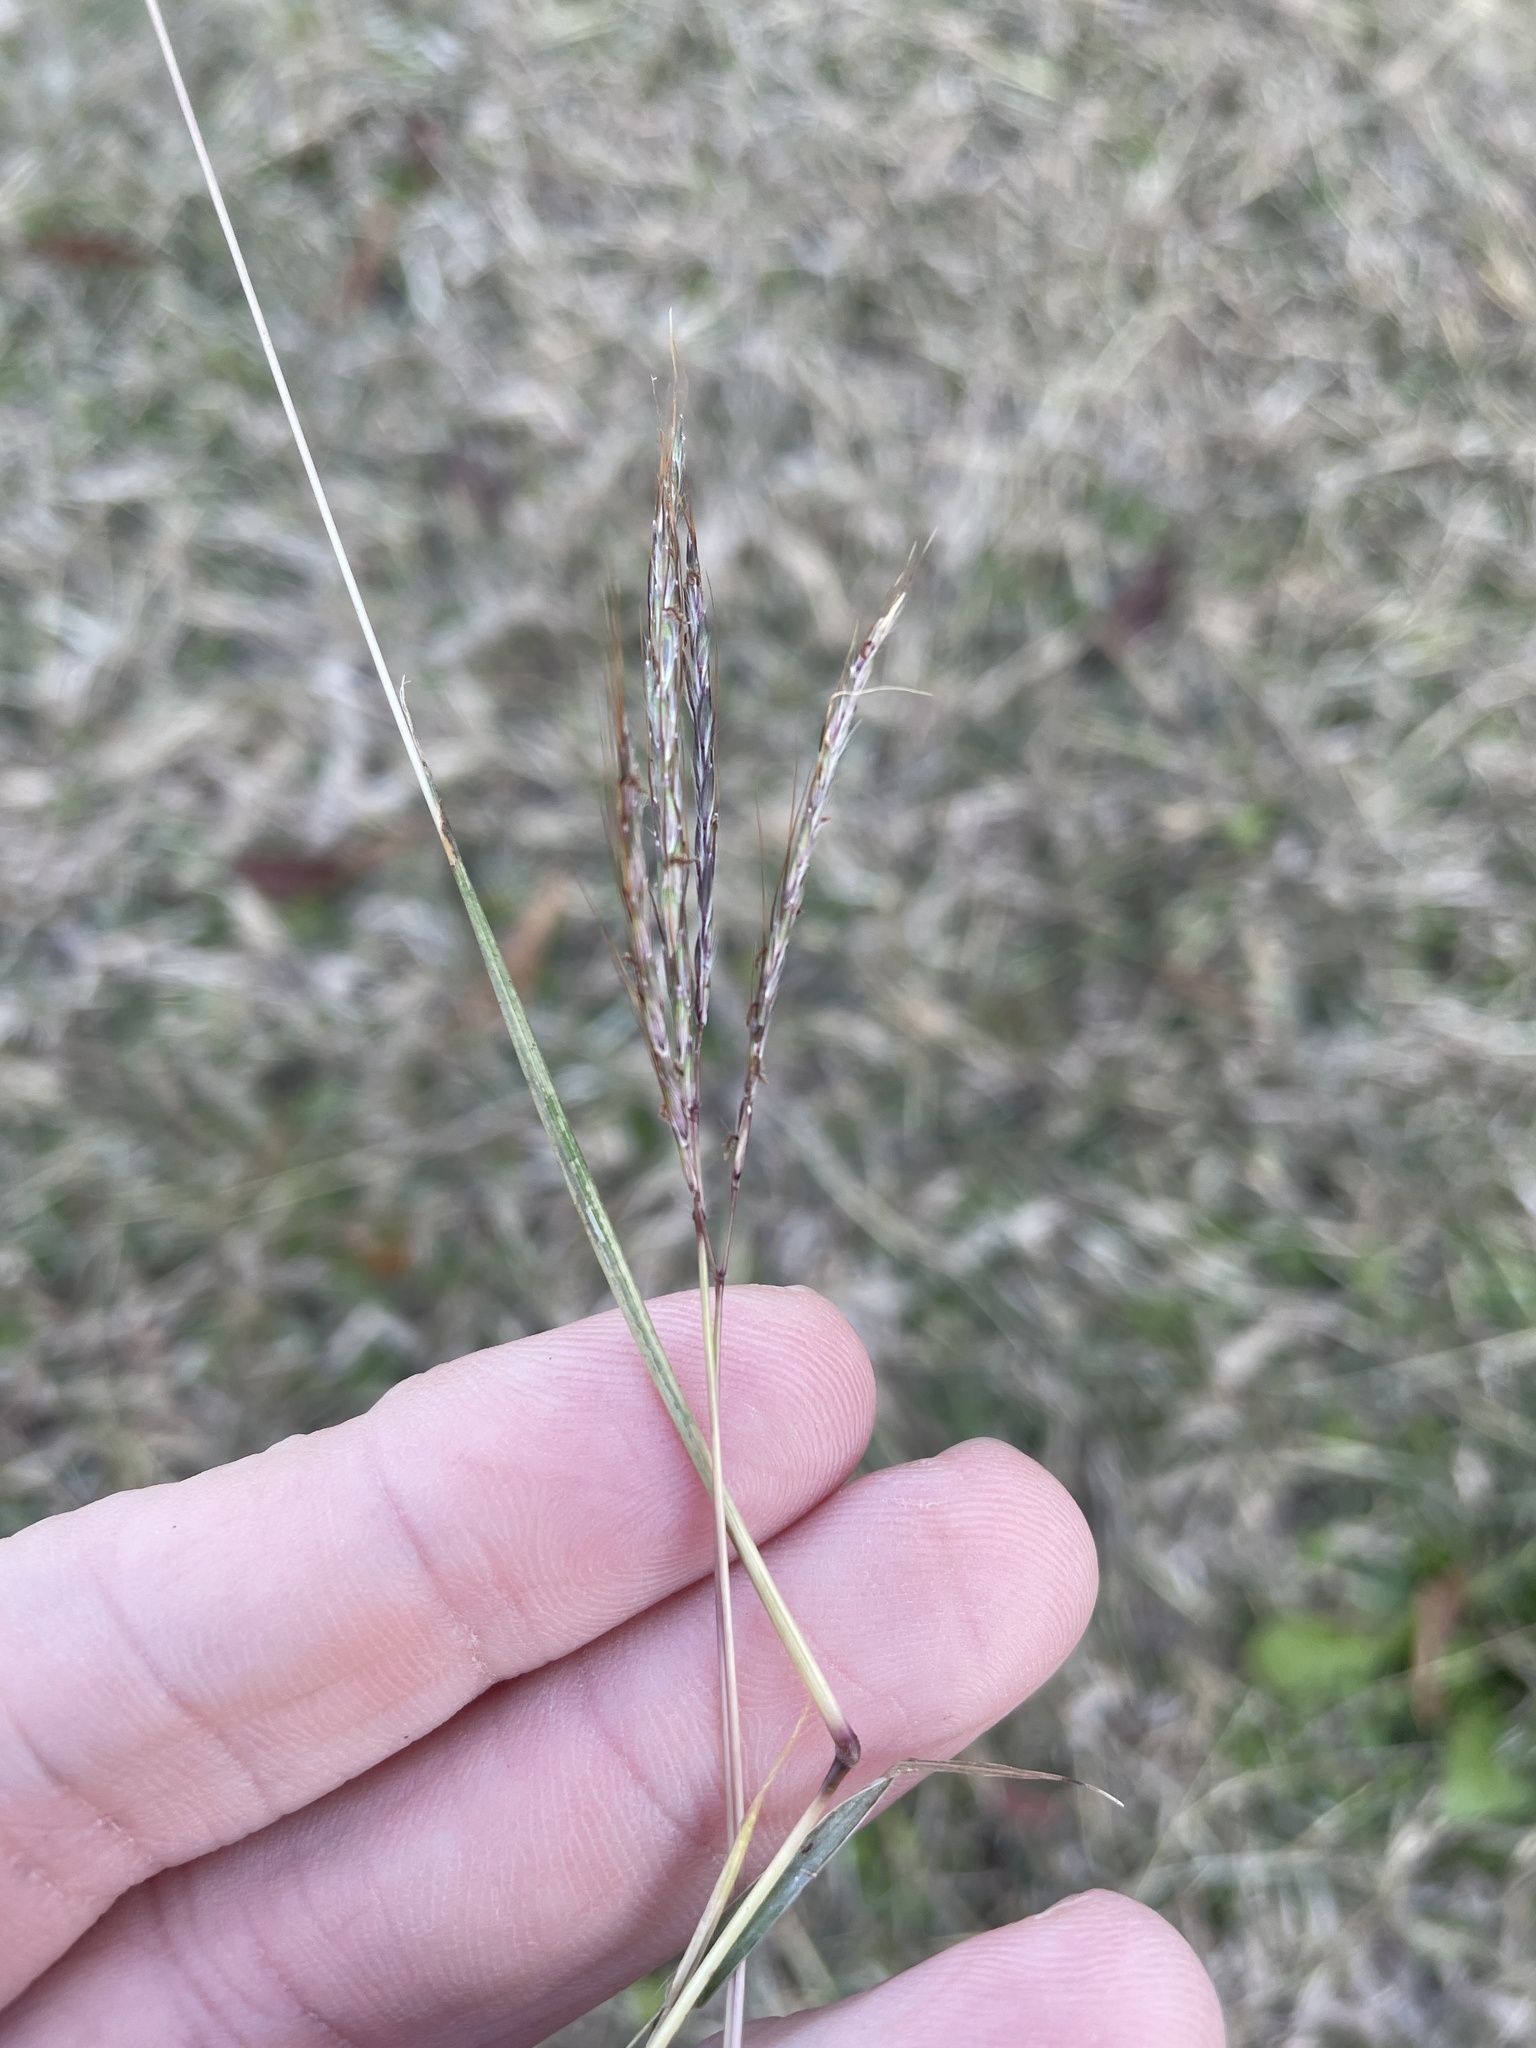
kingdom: Plantae
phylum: Tracheophyta
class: Liliopsida
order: Poales
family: Poaceae
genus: Bothriochloa
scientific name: Bothriochloa ischaemum
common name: Yellow bluestem
